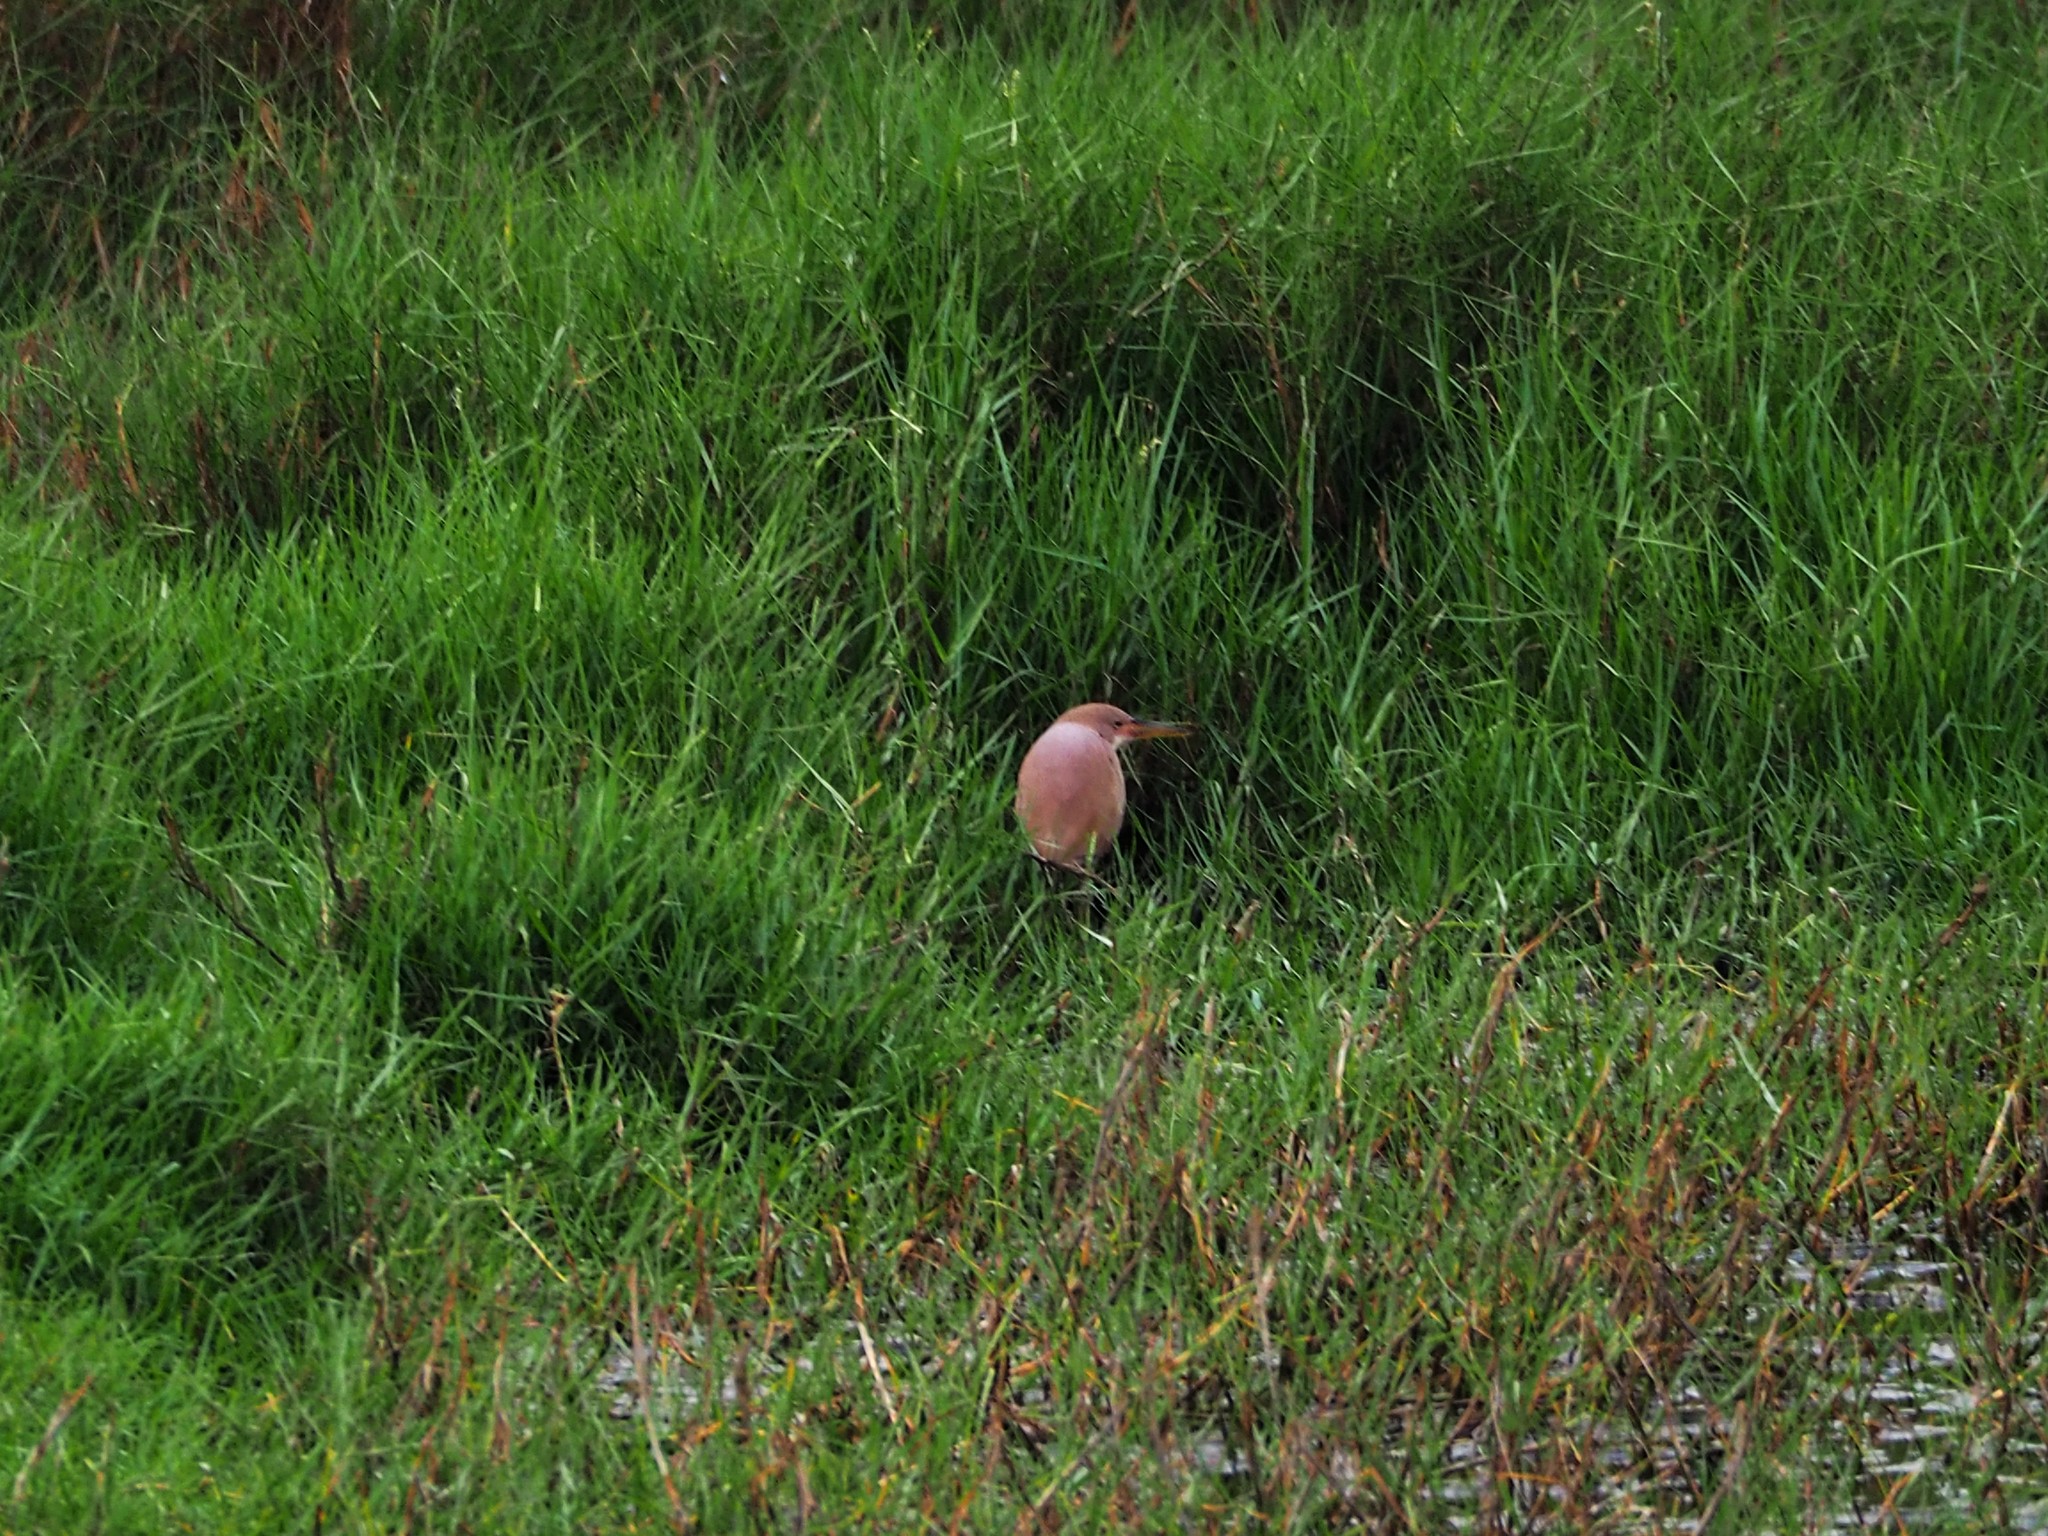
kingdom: Animalia
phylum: Chordata
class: Aves
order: Pelecaniformes
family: Ardeidae
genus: Ixobrychus
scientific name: Ixobrychus cinnamomeus
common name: Cinnamon bittern
